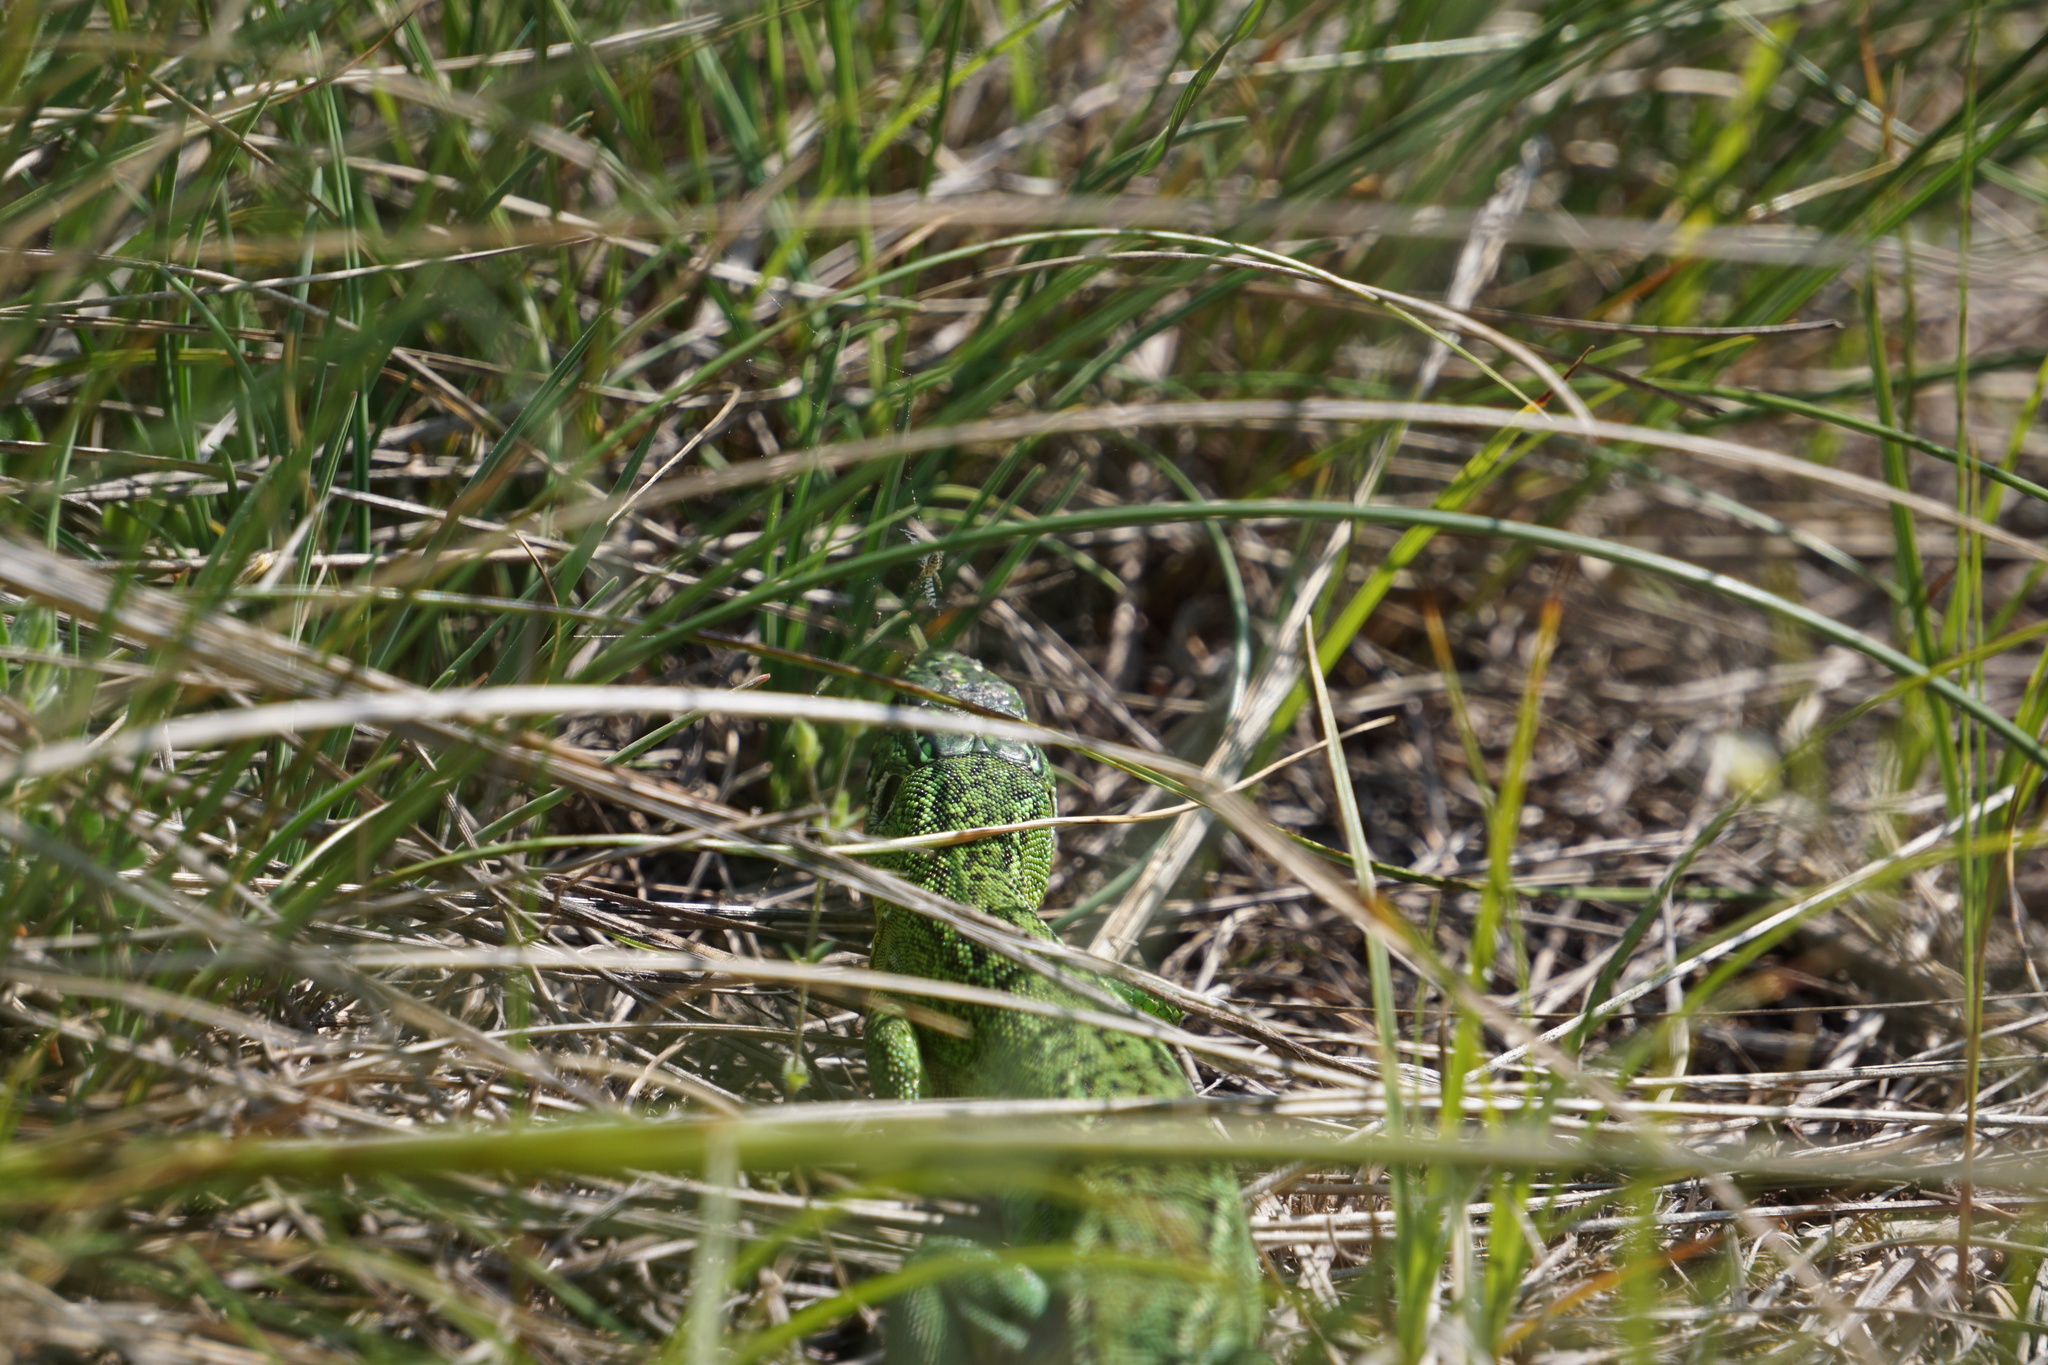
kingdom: Animalia
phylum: Chordata
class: Squamata
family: Lacertidae
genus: Lacerta
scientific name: Lacerta bilineata
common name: Western green lizard
